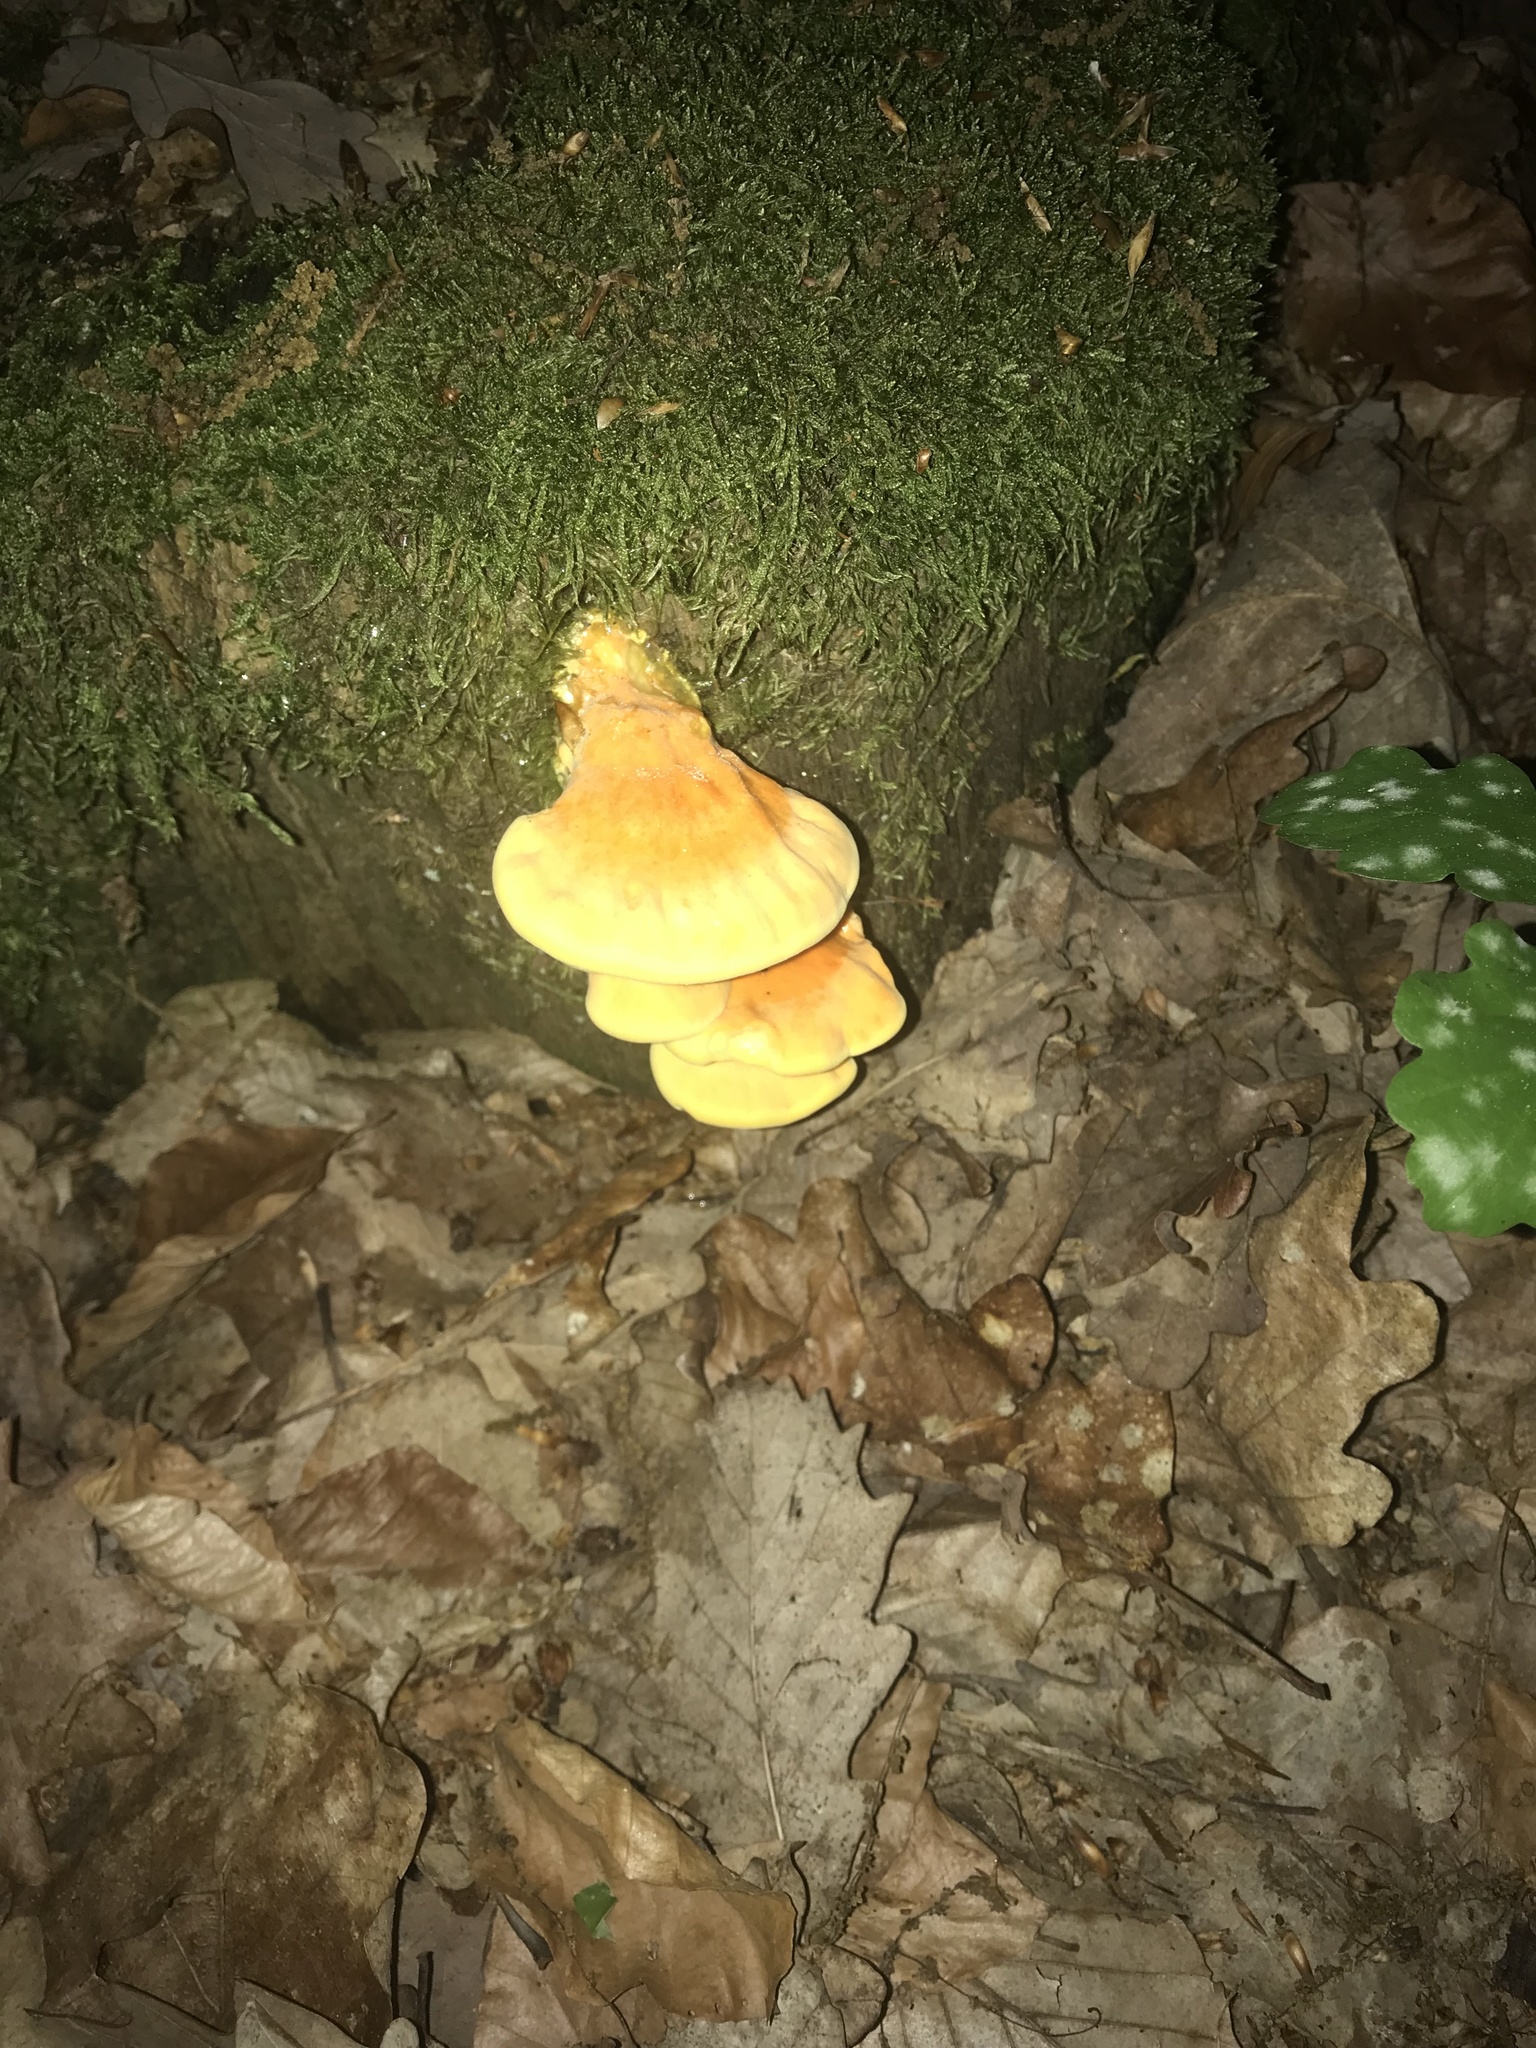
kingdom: Fungi
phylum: Basidiomycota
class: Agaricomycetes
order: Polyporales
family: Laetiporaceae
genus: Laetiporus
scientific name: Laetiporus sulphureus
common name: Chicken of the woods
